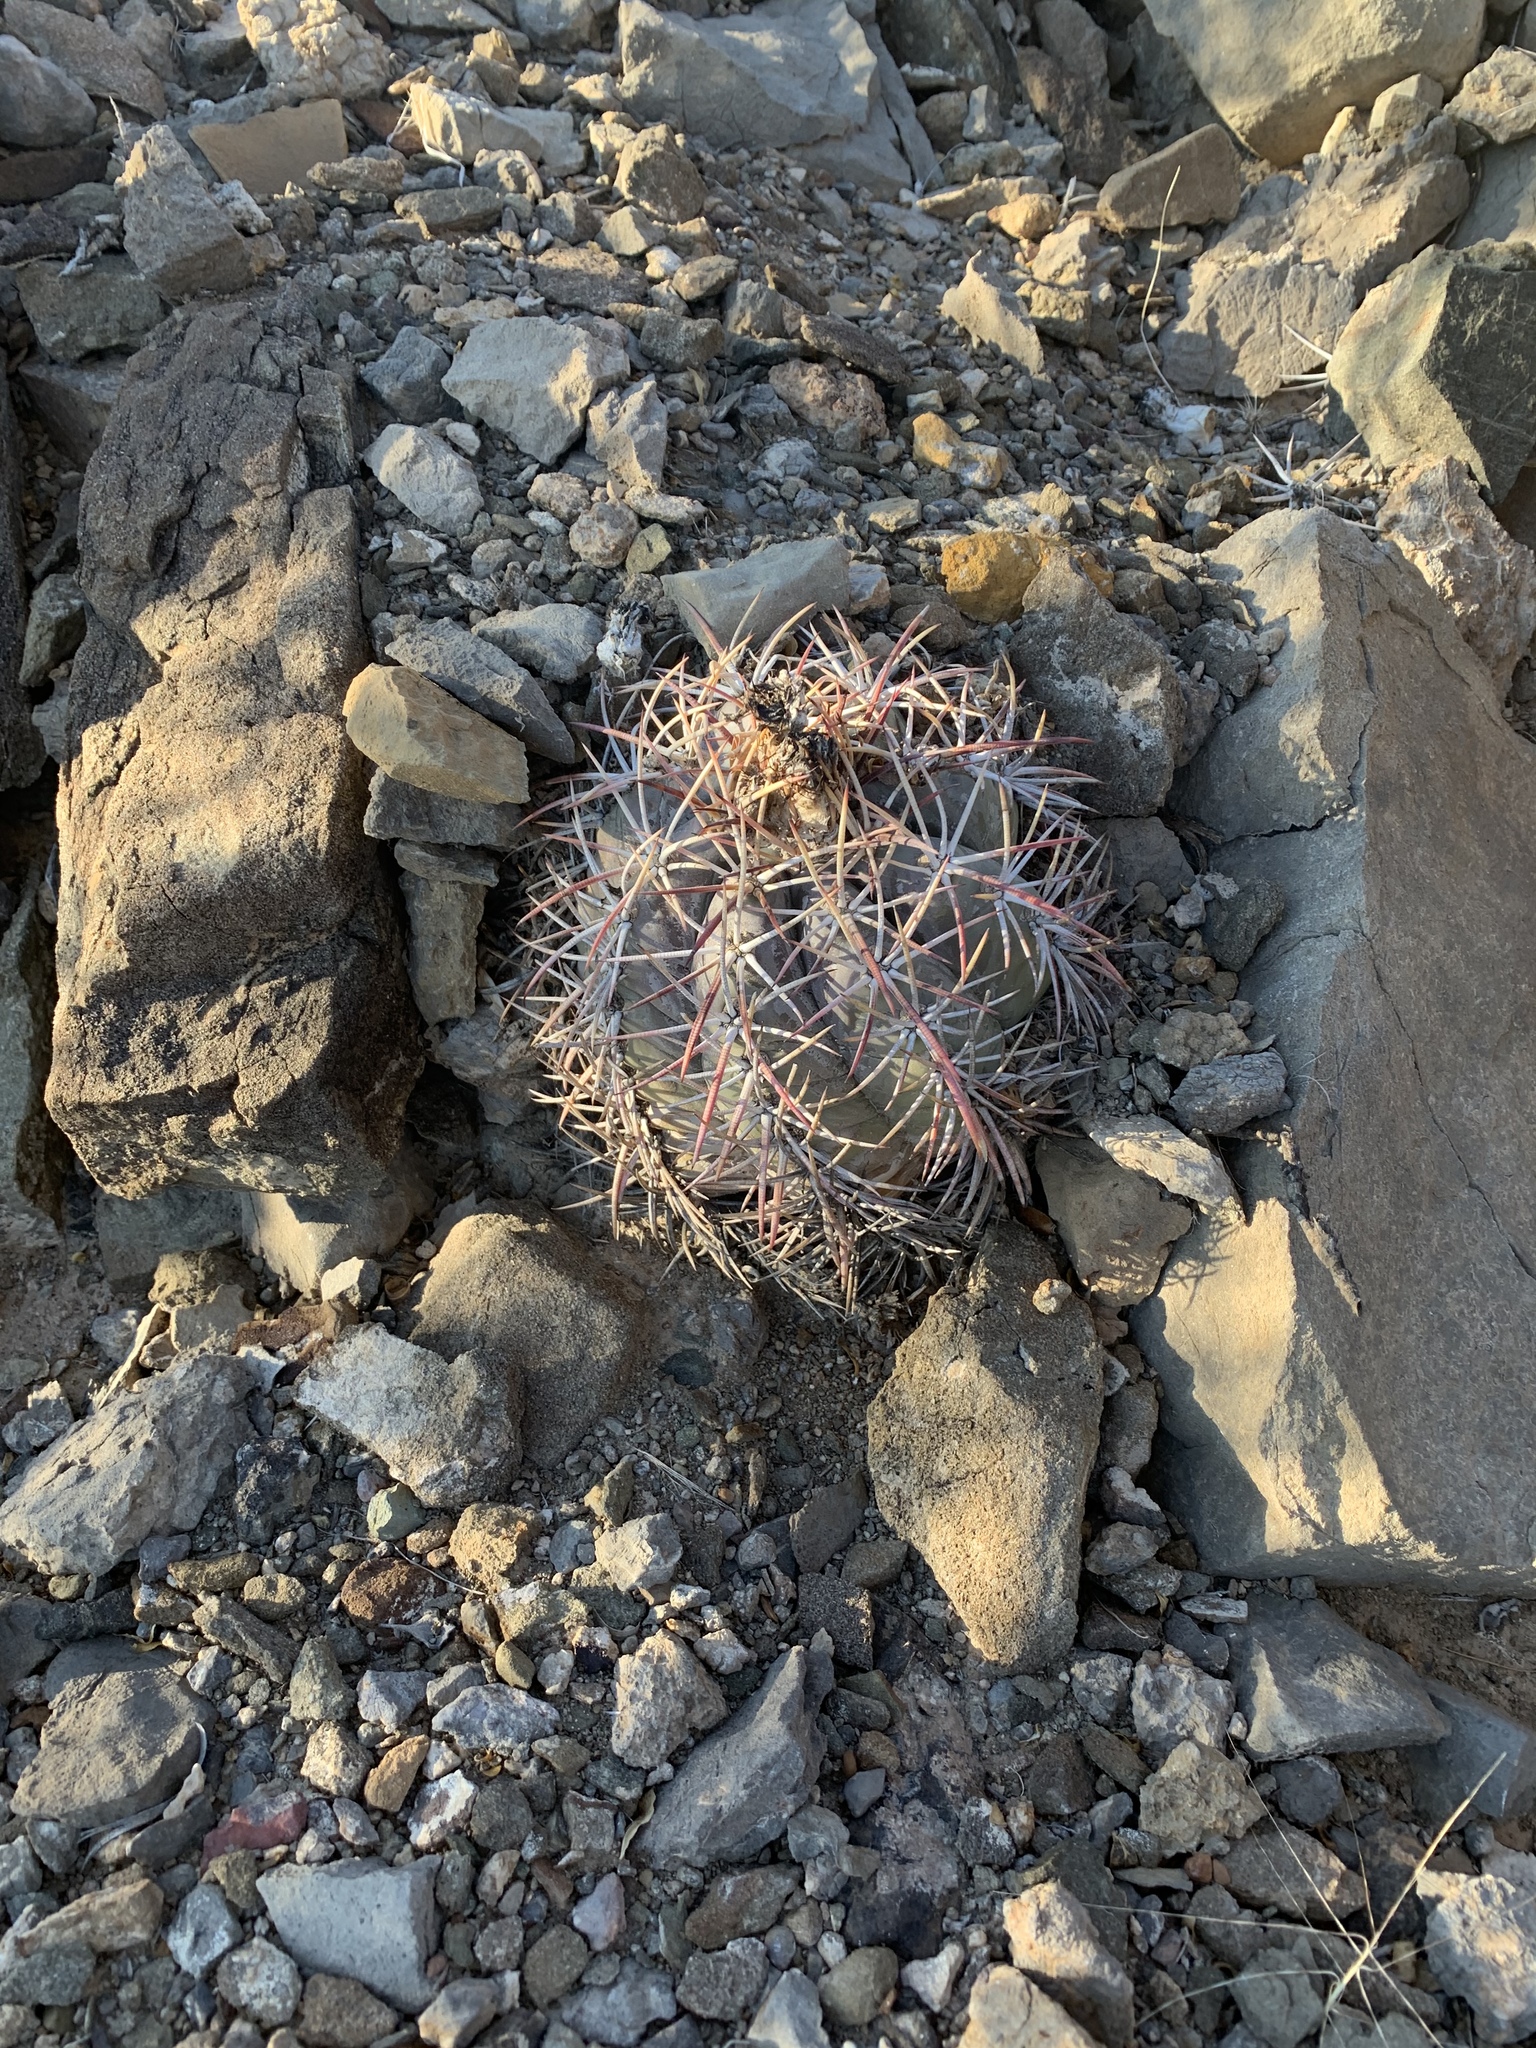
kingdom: Plantae
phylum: Tracheophyta
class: Magnoliopsida
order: Caryophyllales
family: Cactaceae
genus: Echinocactus
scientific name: Echinocactus horizonthalonius
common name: Devilshead
